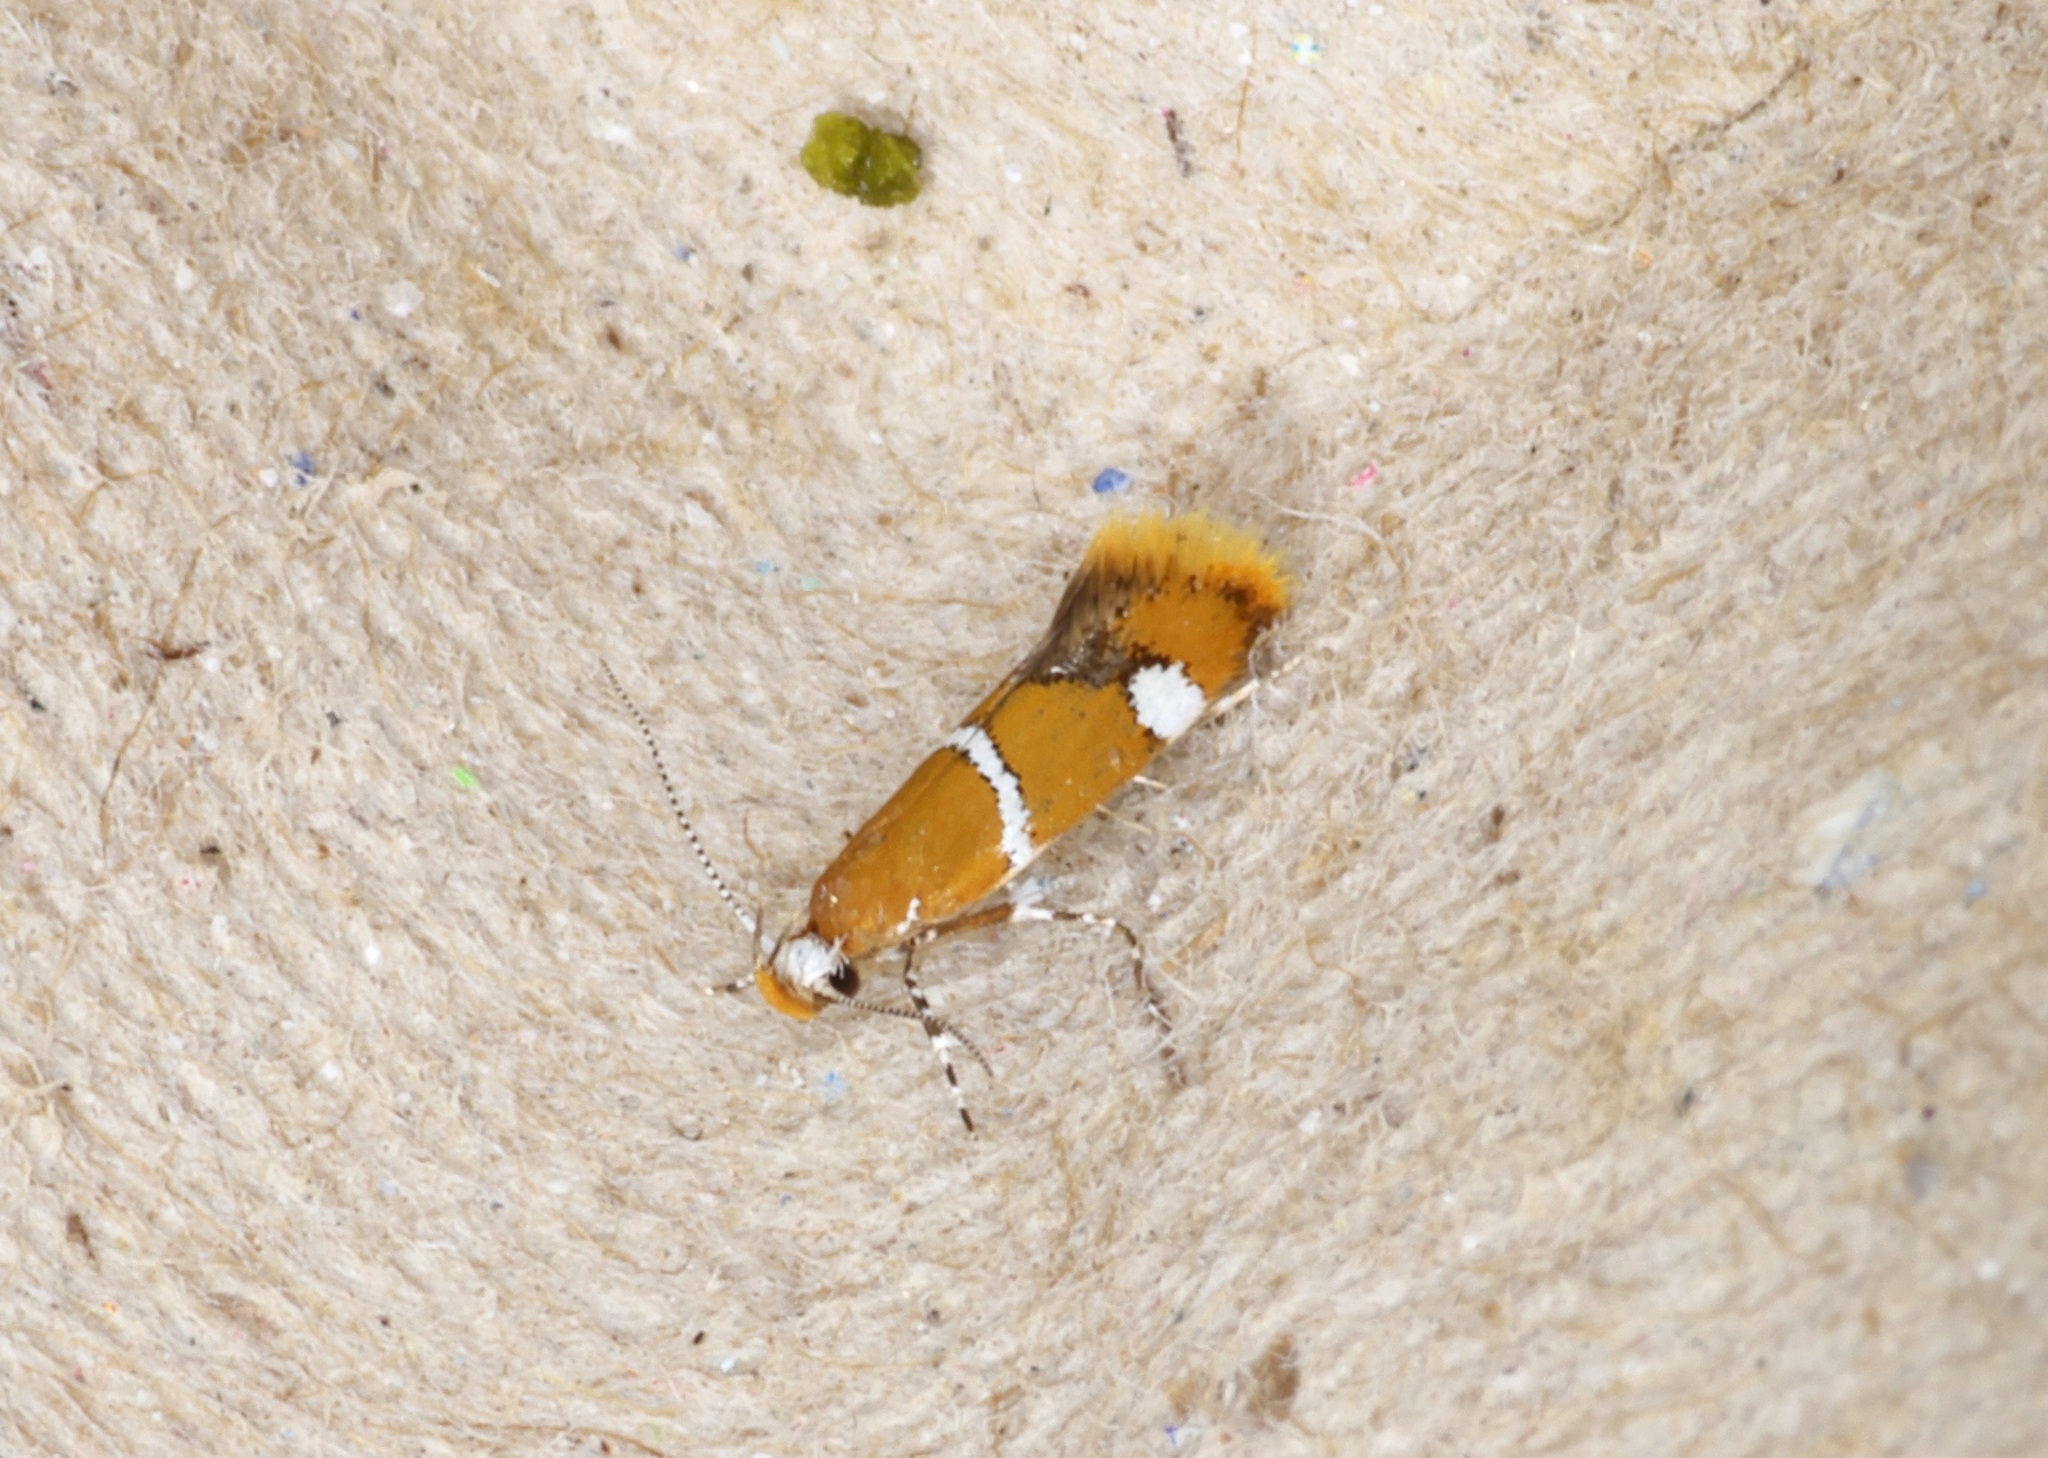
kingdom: Animalia
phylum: Arthropoda
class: Insecta
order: Lepidoptera
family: Oecophoridae
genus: Promalactis
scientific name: Promalactis albisquama
